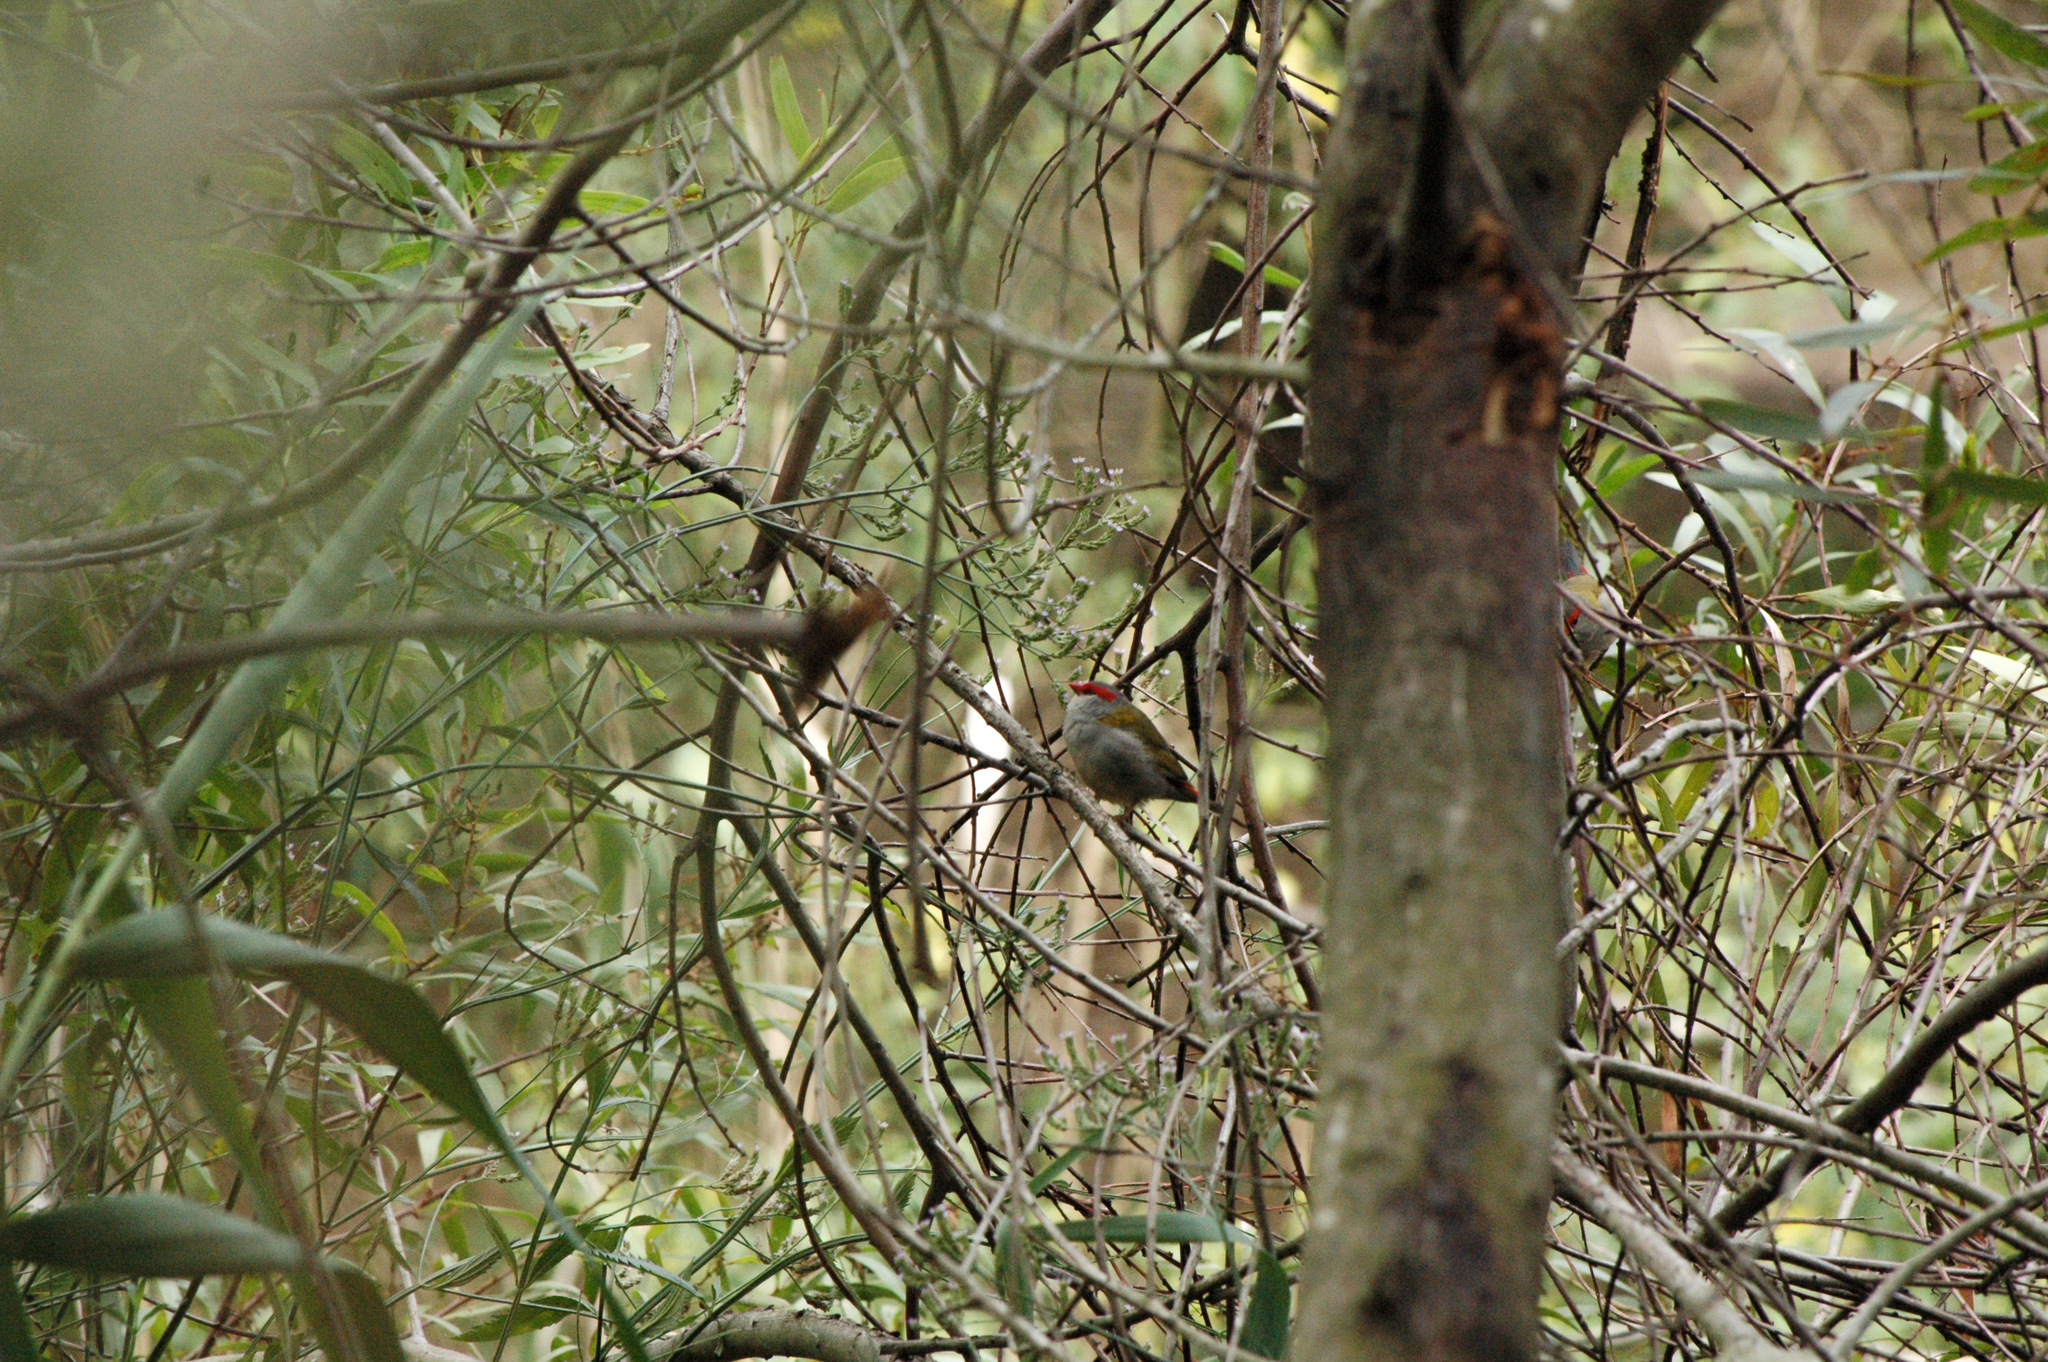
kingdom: Animalia
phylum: Chordata
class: Aves
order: Passeriformes
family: Estrildidae
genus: Neochmia
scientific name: Neochmia temporalis
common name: Red-browed finch
